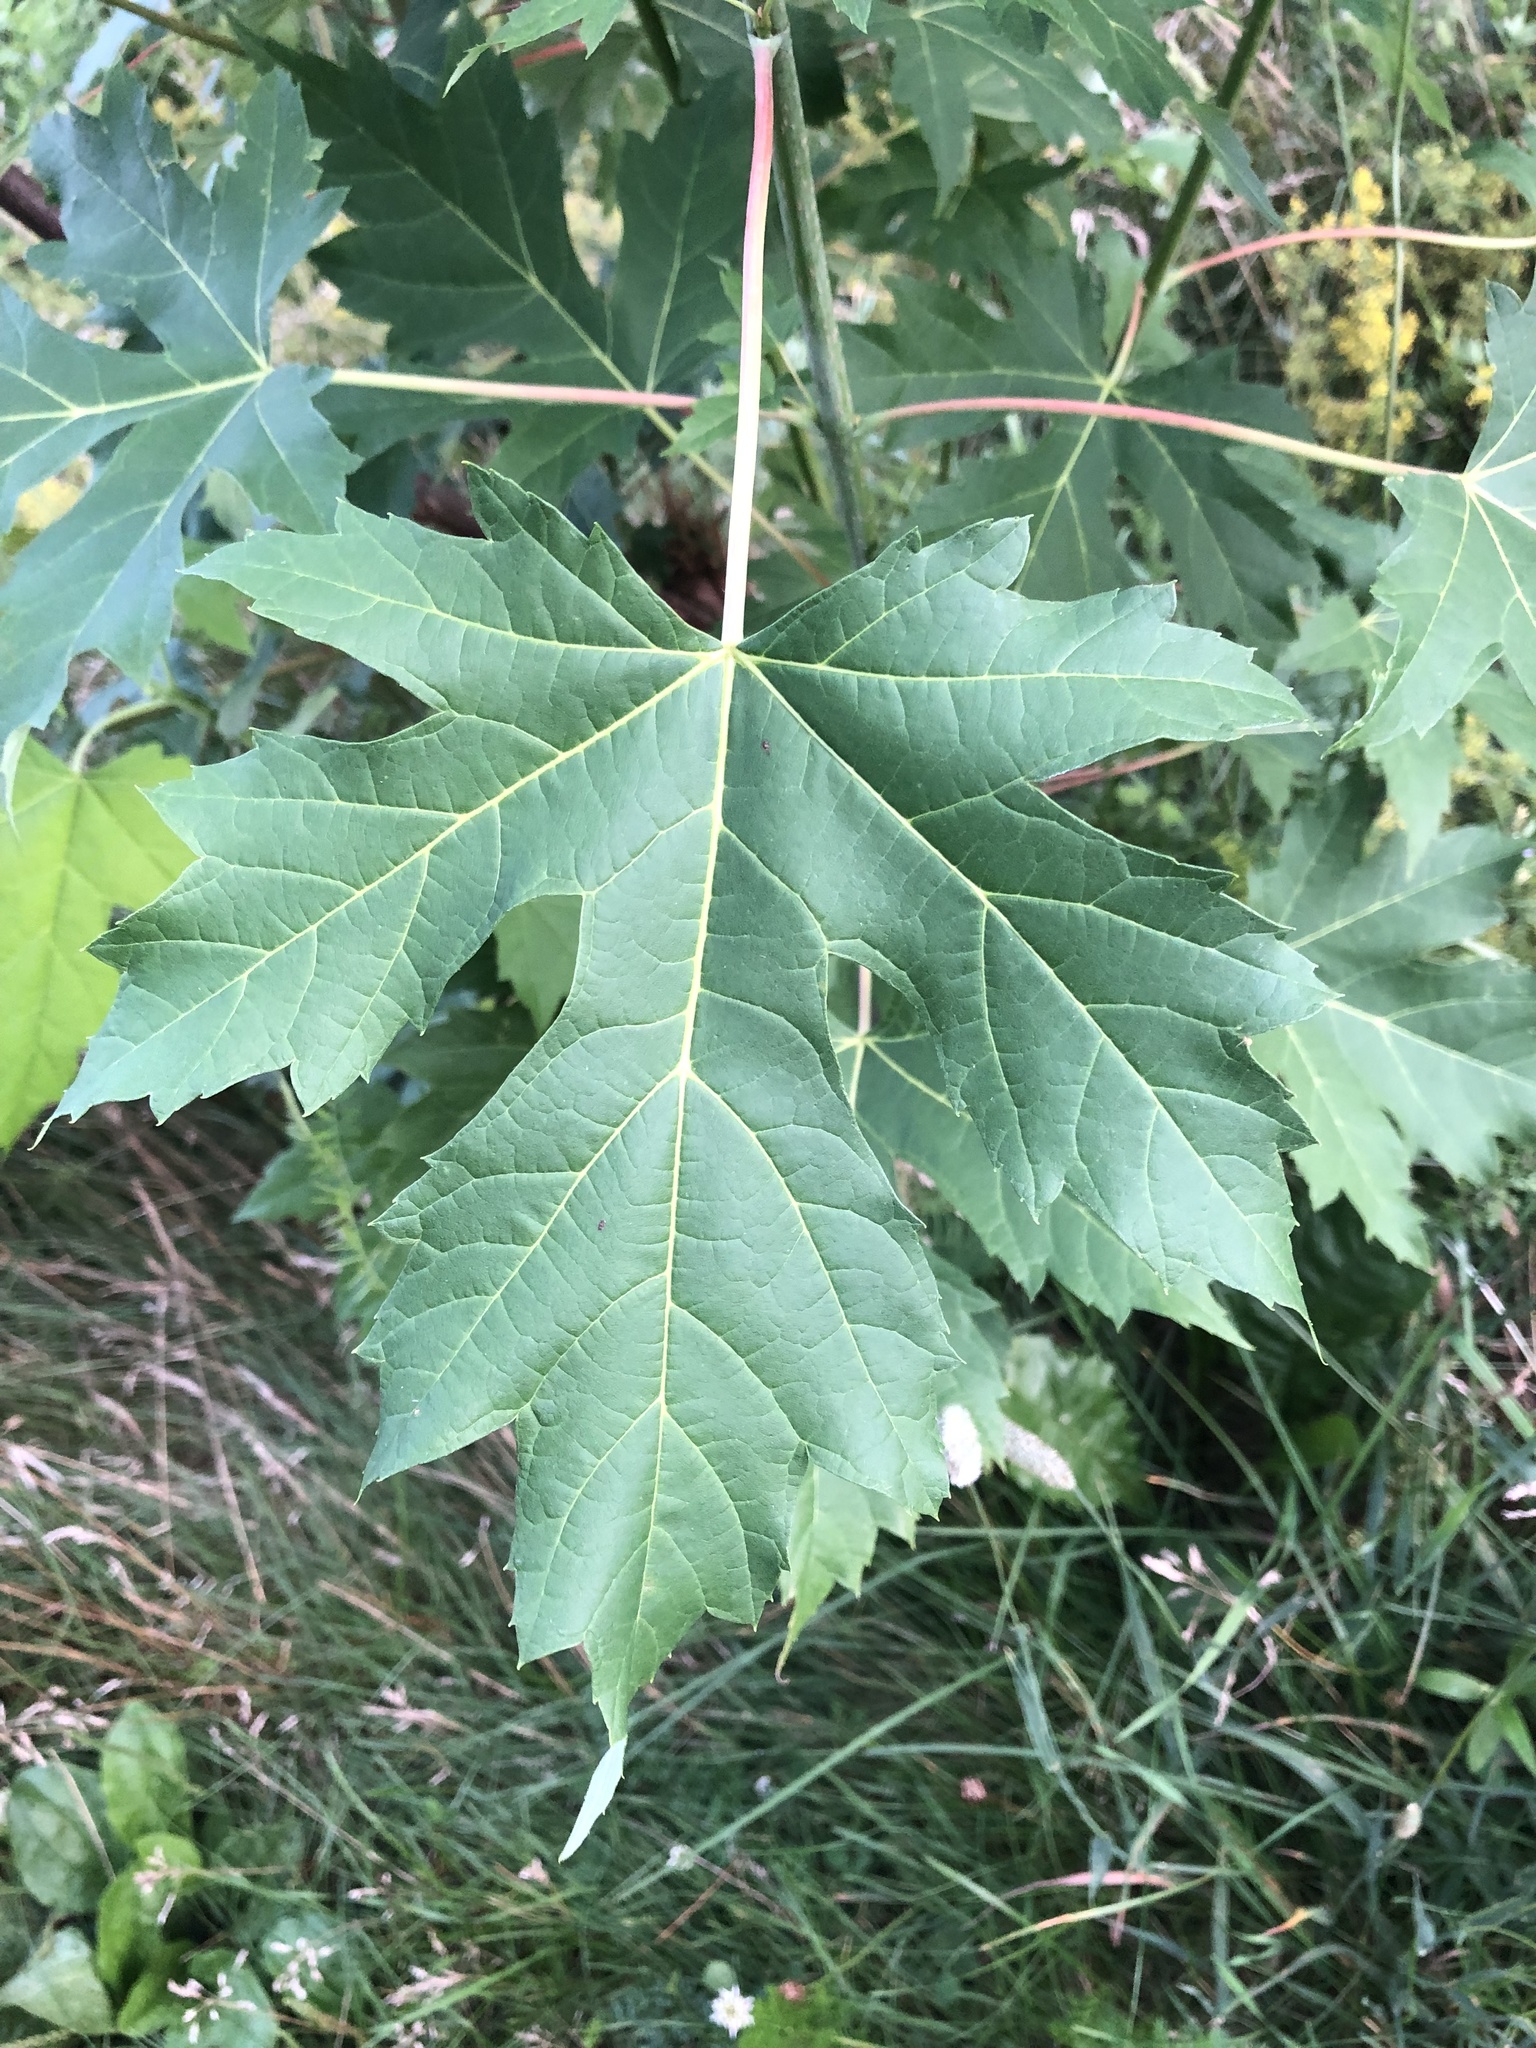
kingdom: Plantae
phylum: Tracheophyta
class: Magnoliopsida
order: Sapindales
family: Sapindaceae
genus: Acer
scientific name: Acer saccharinum
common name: Silver maple
